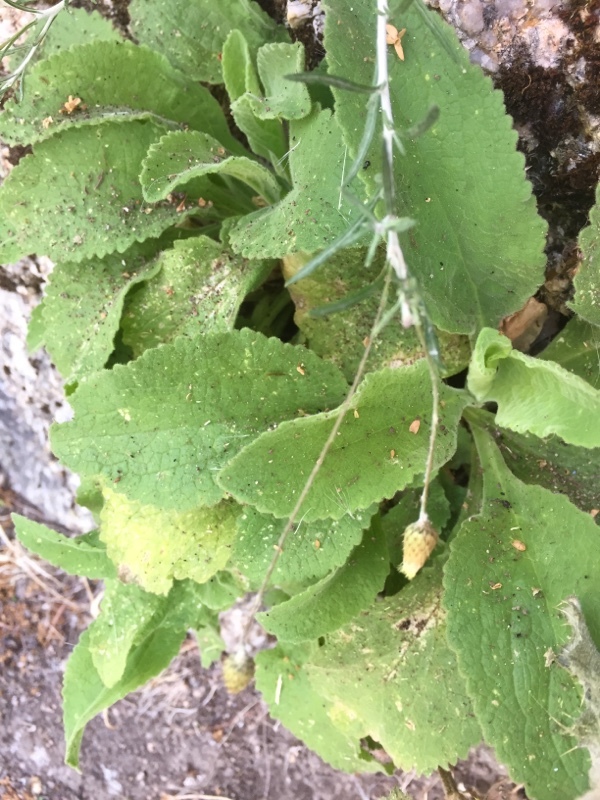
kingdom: Plantae
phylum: Tracheophyta
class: Magnoliopsida
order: Lamiales
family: Plantaginaceae
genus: Digitalis
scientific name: Digitalis thapsi
